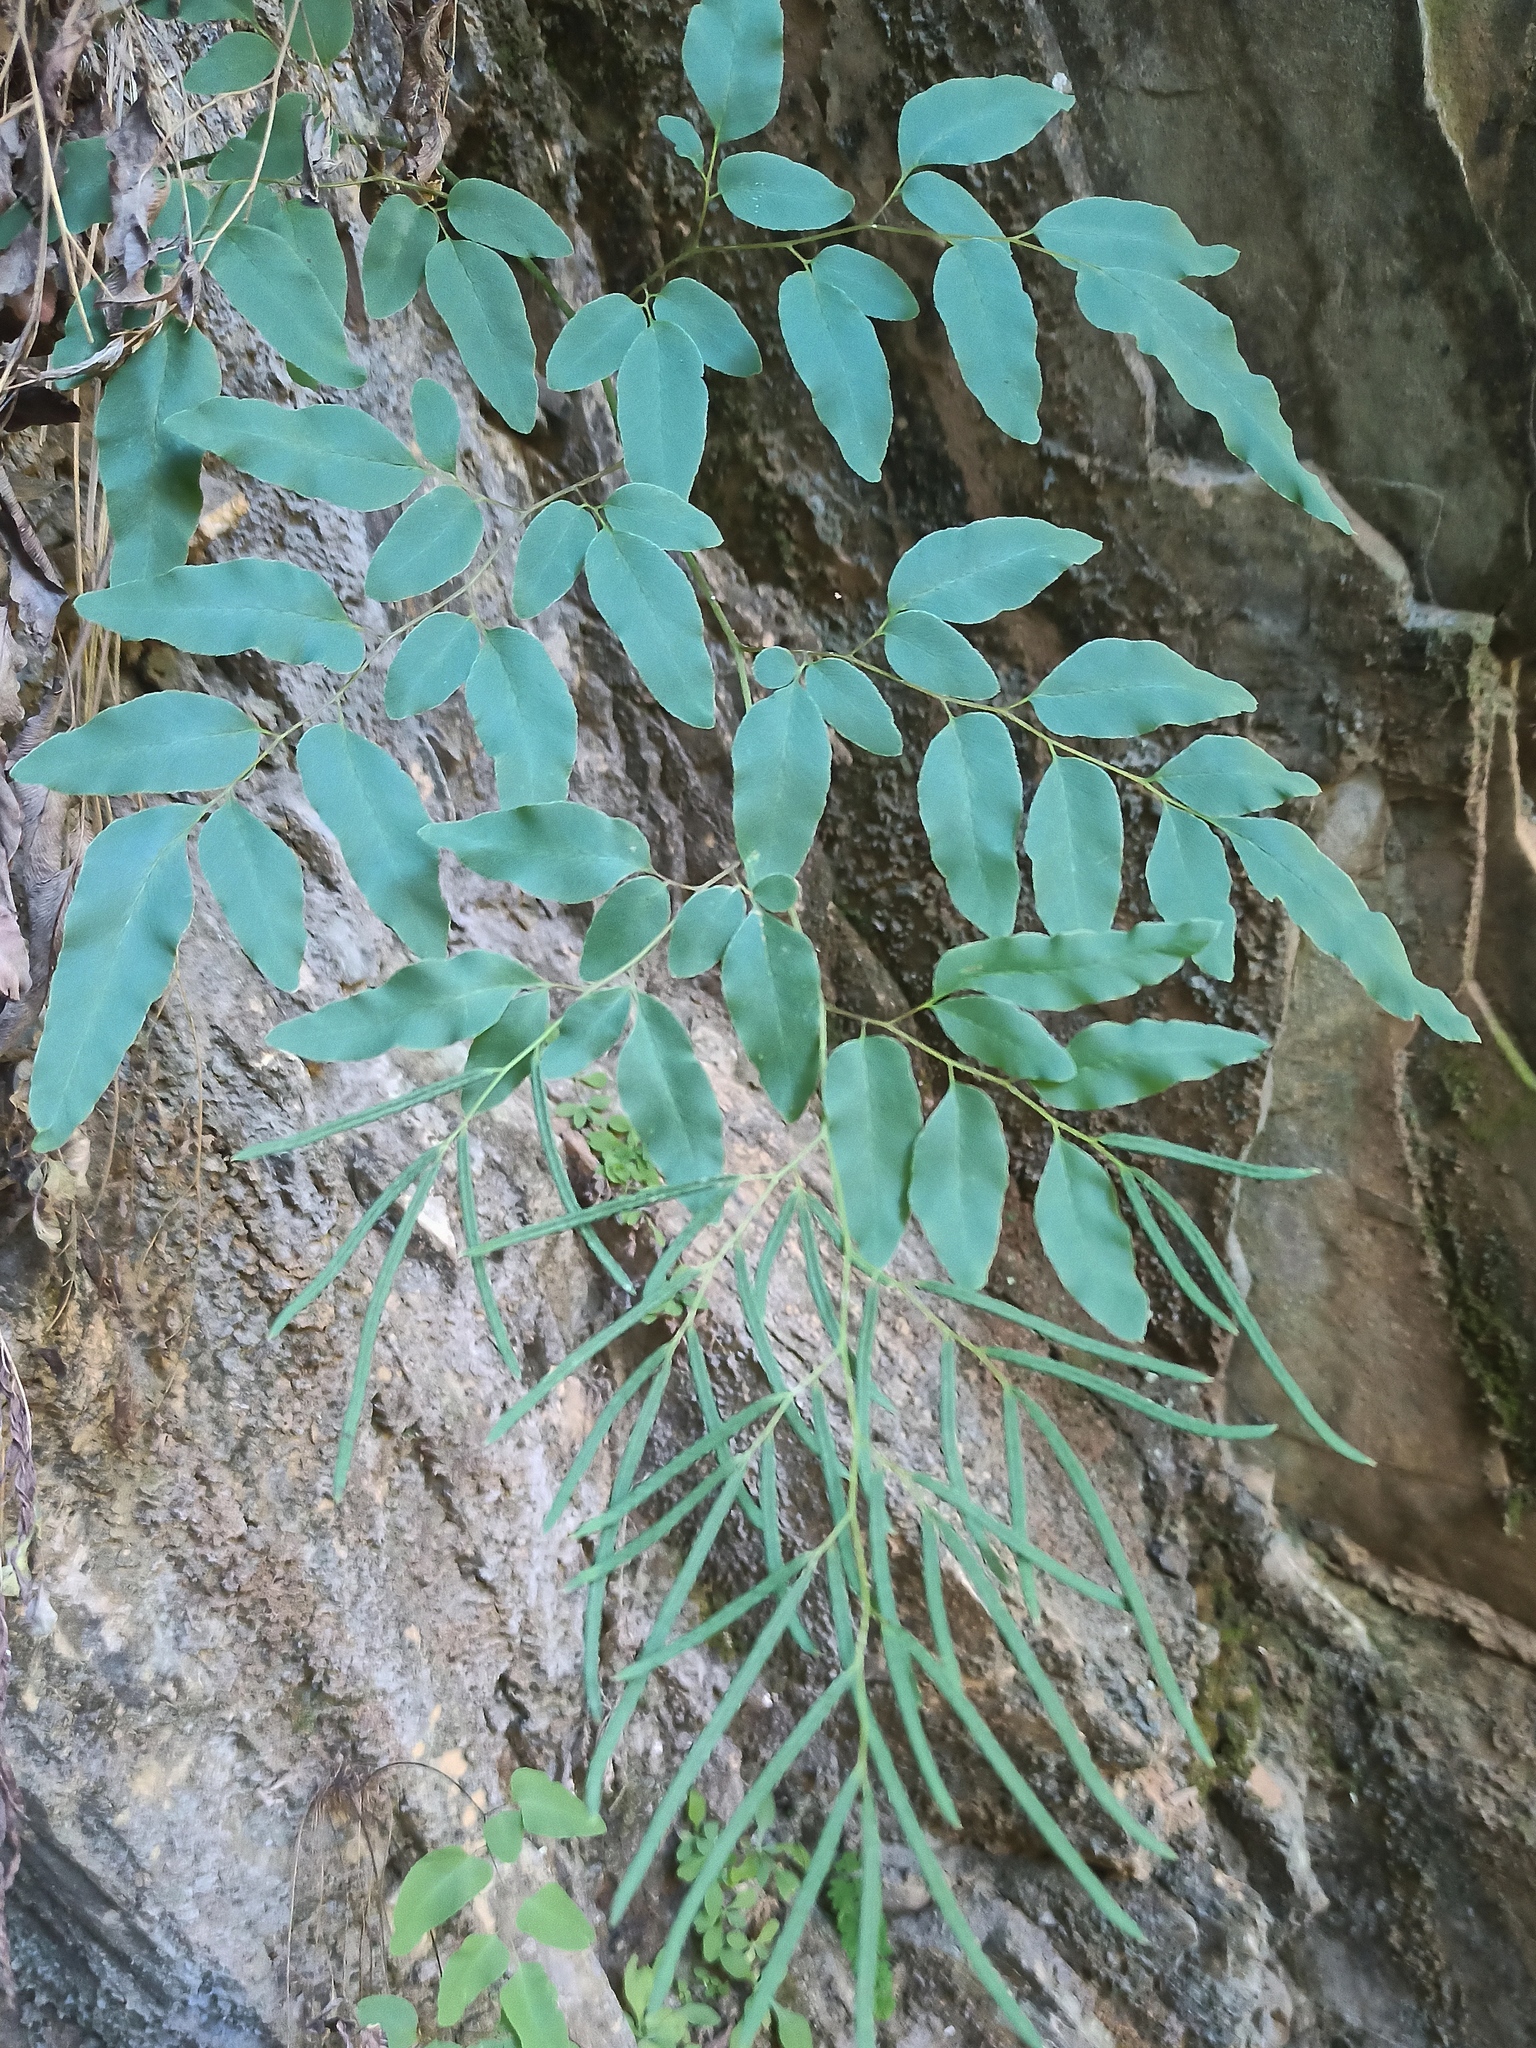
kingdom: Plantae
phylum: Tracheophyta
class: Polypodiopsida
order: Polypodiales
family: Pteridaceae
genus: Llavea
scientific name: Llavea cordifolia
